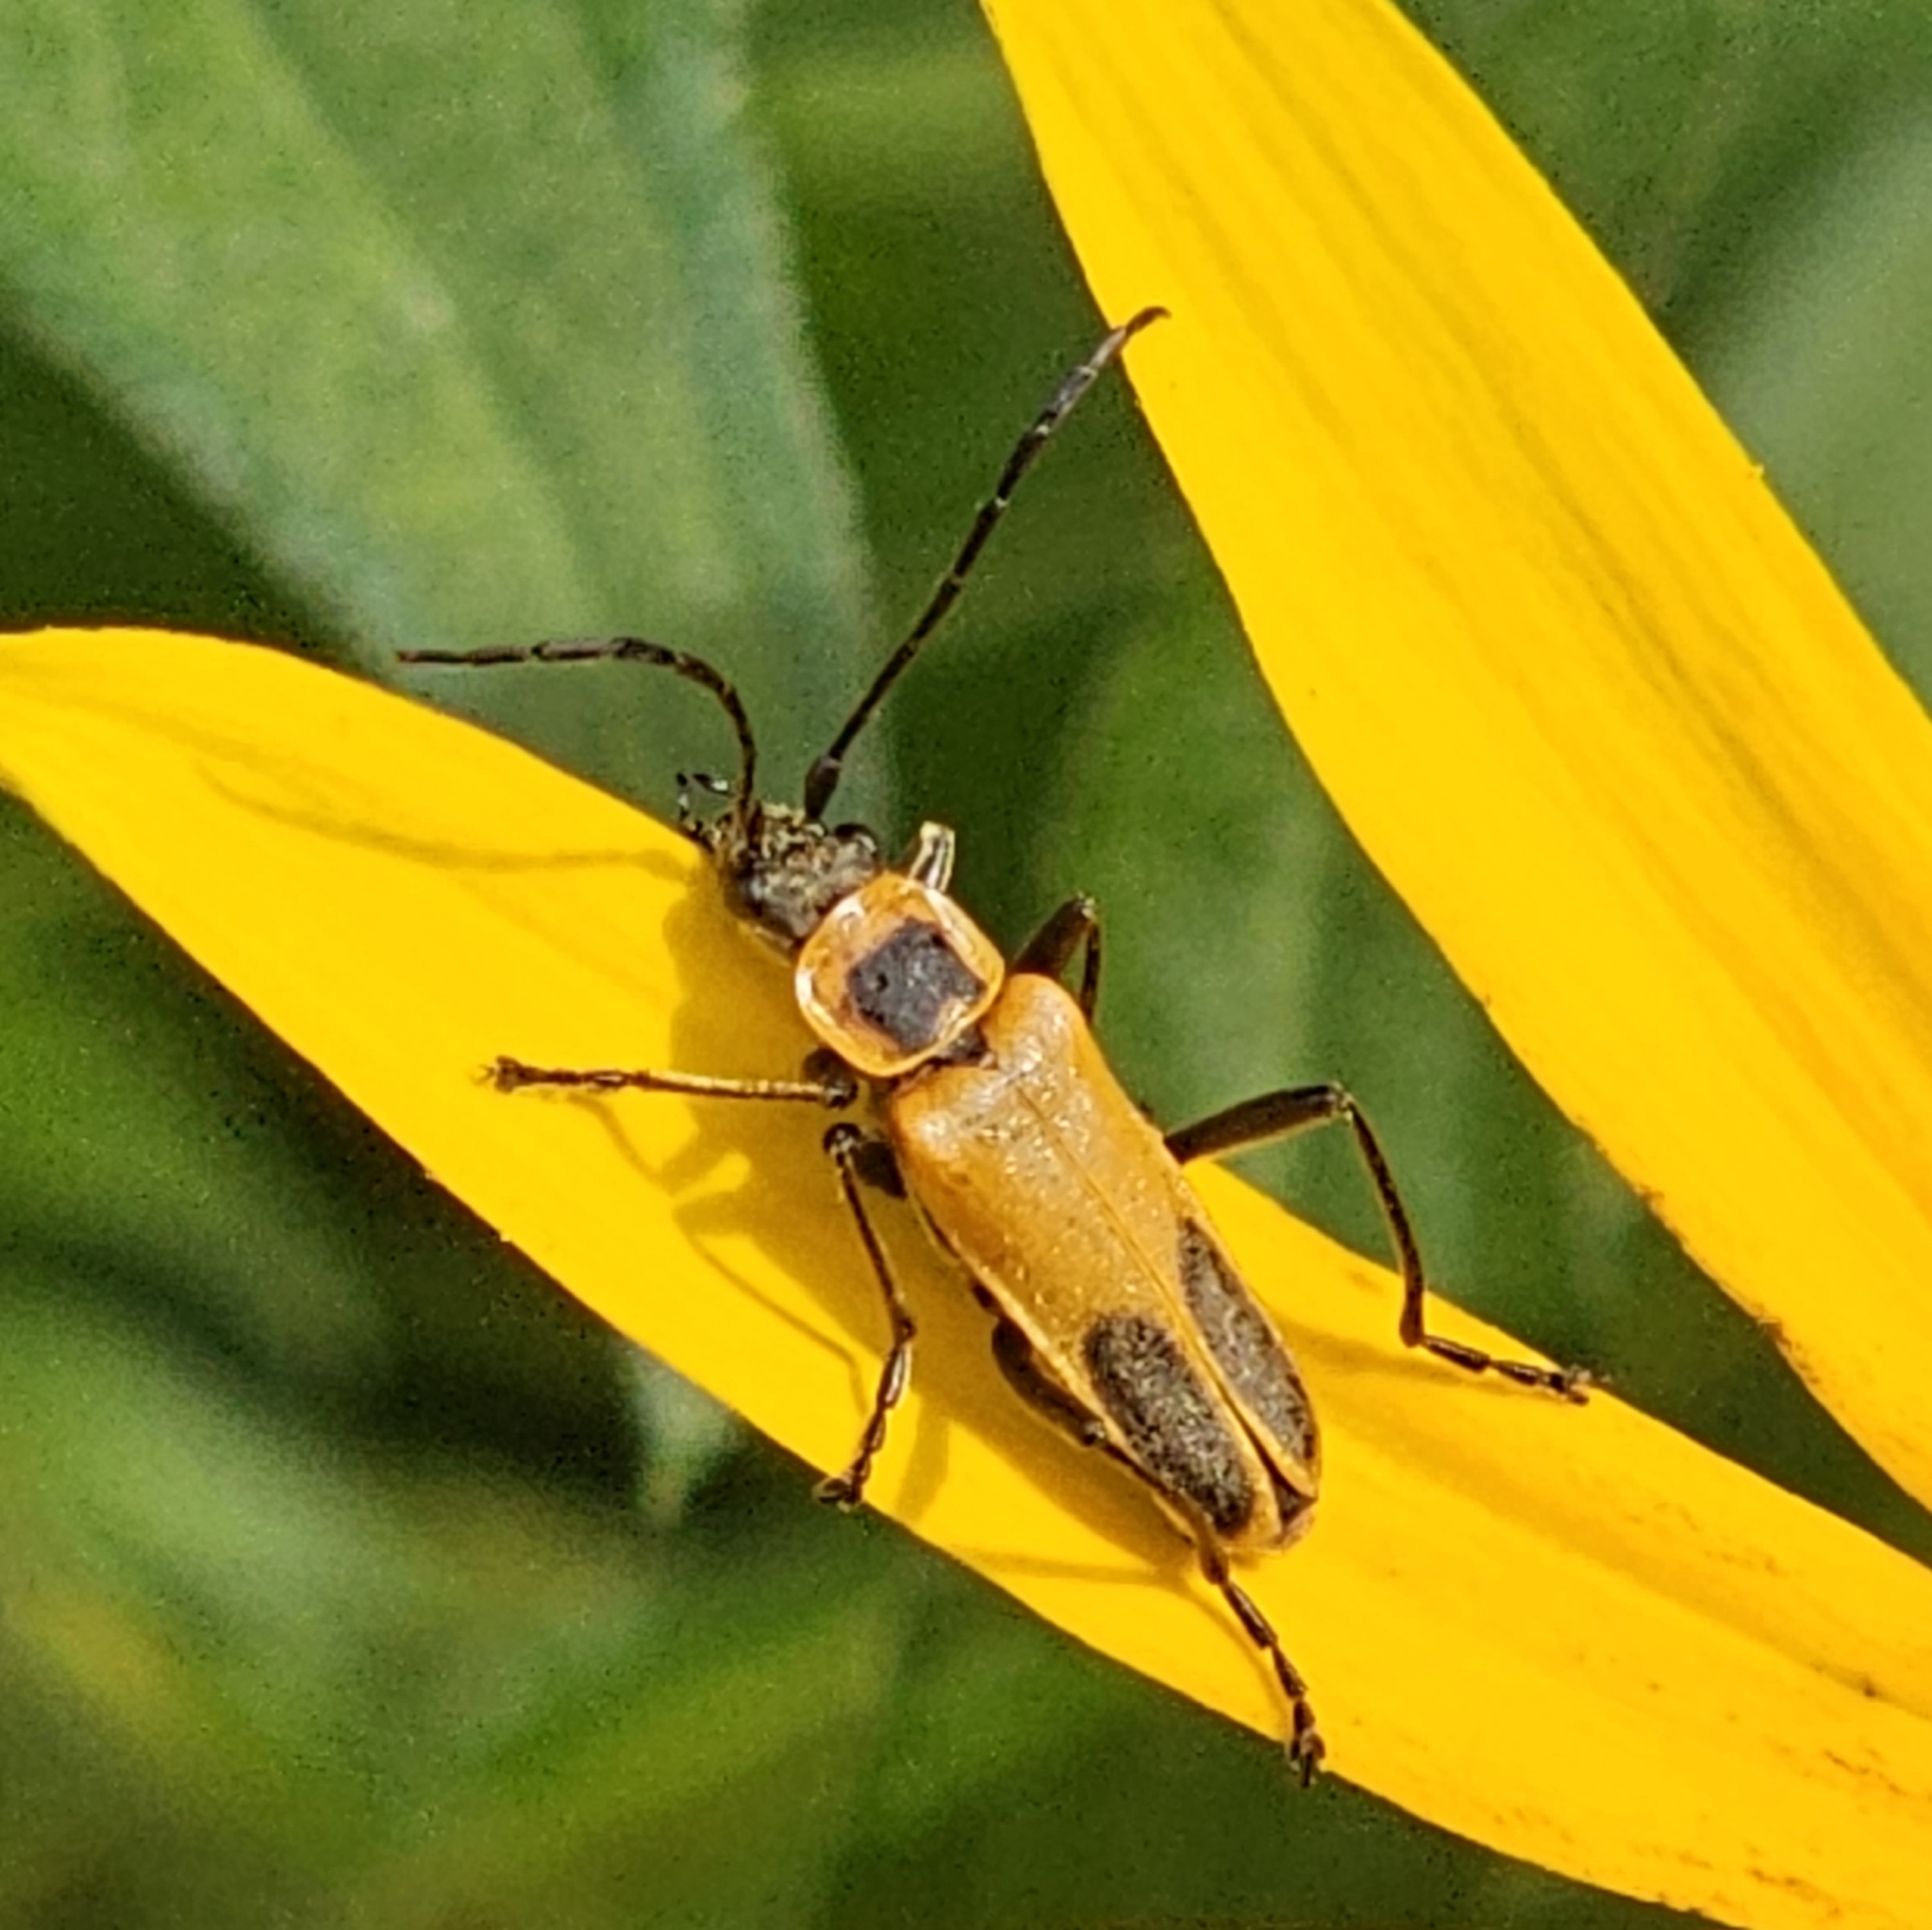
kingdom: Animalia
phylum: Arthropoda
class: Insecta
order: Coleoptera
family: Cantharidae
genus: Chauliognathus
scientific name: Chauliognathus pensylvanicus
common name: Goldenrod soldier beetle
